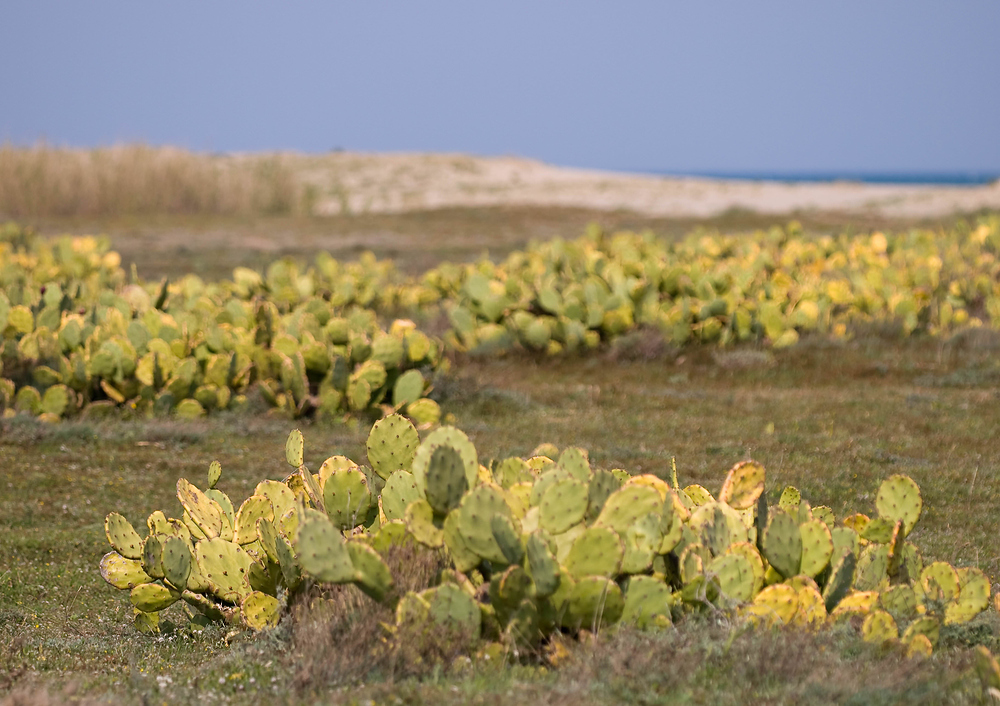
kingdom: Plantae
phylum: Tracheophyta
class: Magnoliopsida
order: Caryophyllales
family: Cactaceae
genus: Opuntia
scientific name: Opuntia anahuacensis
